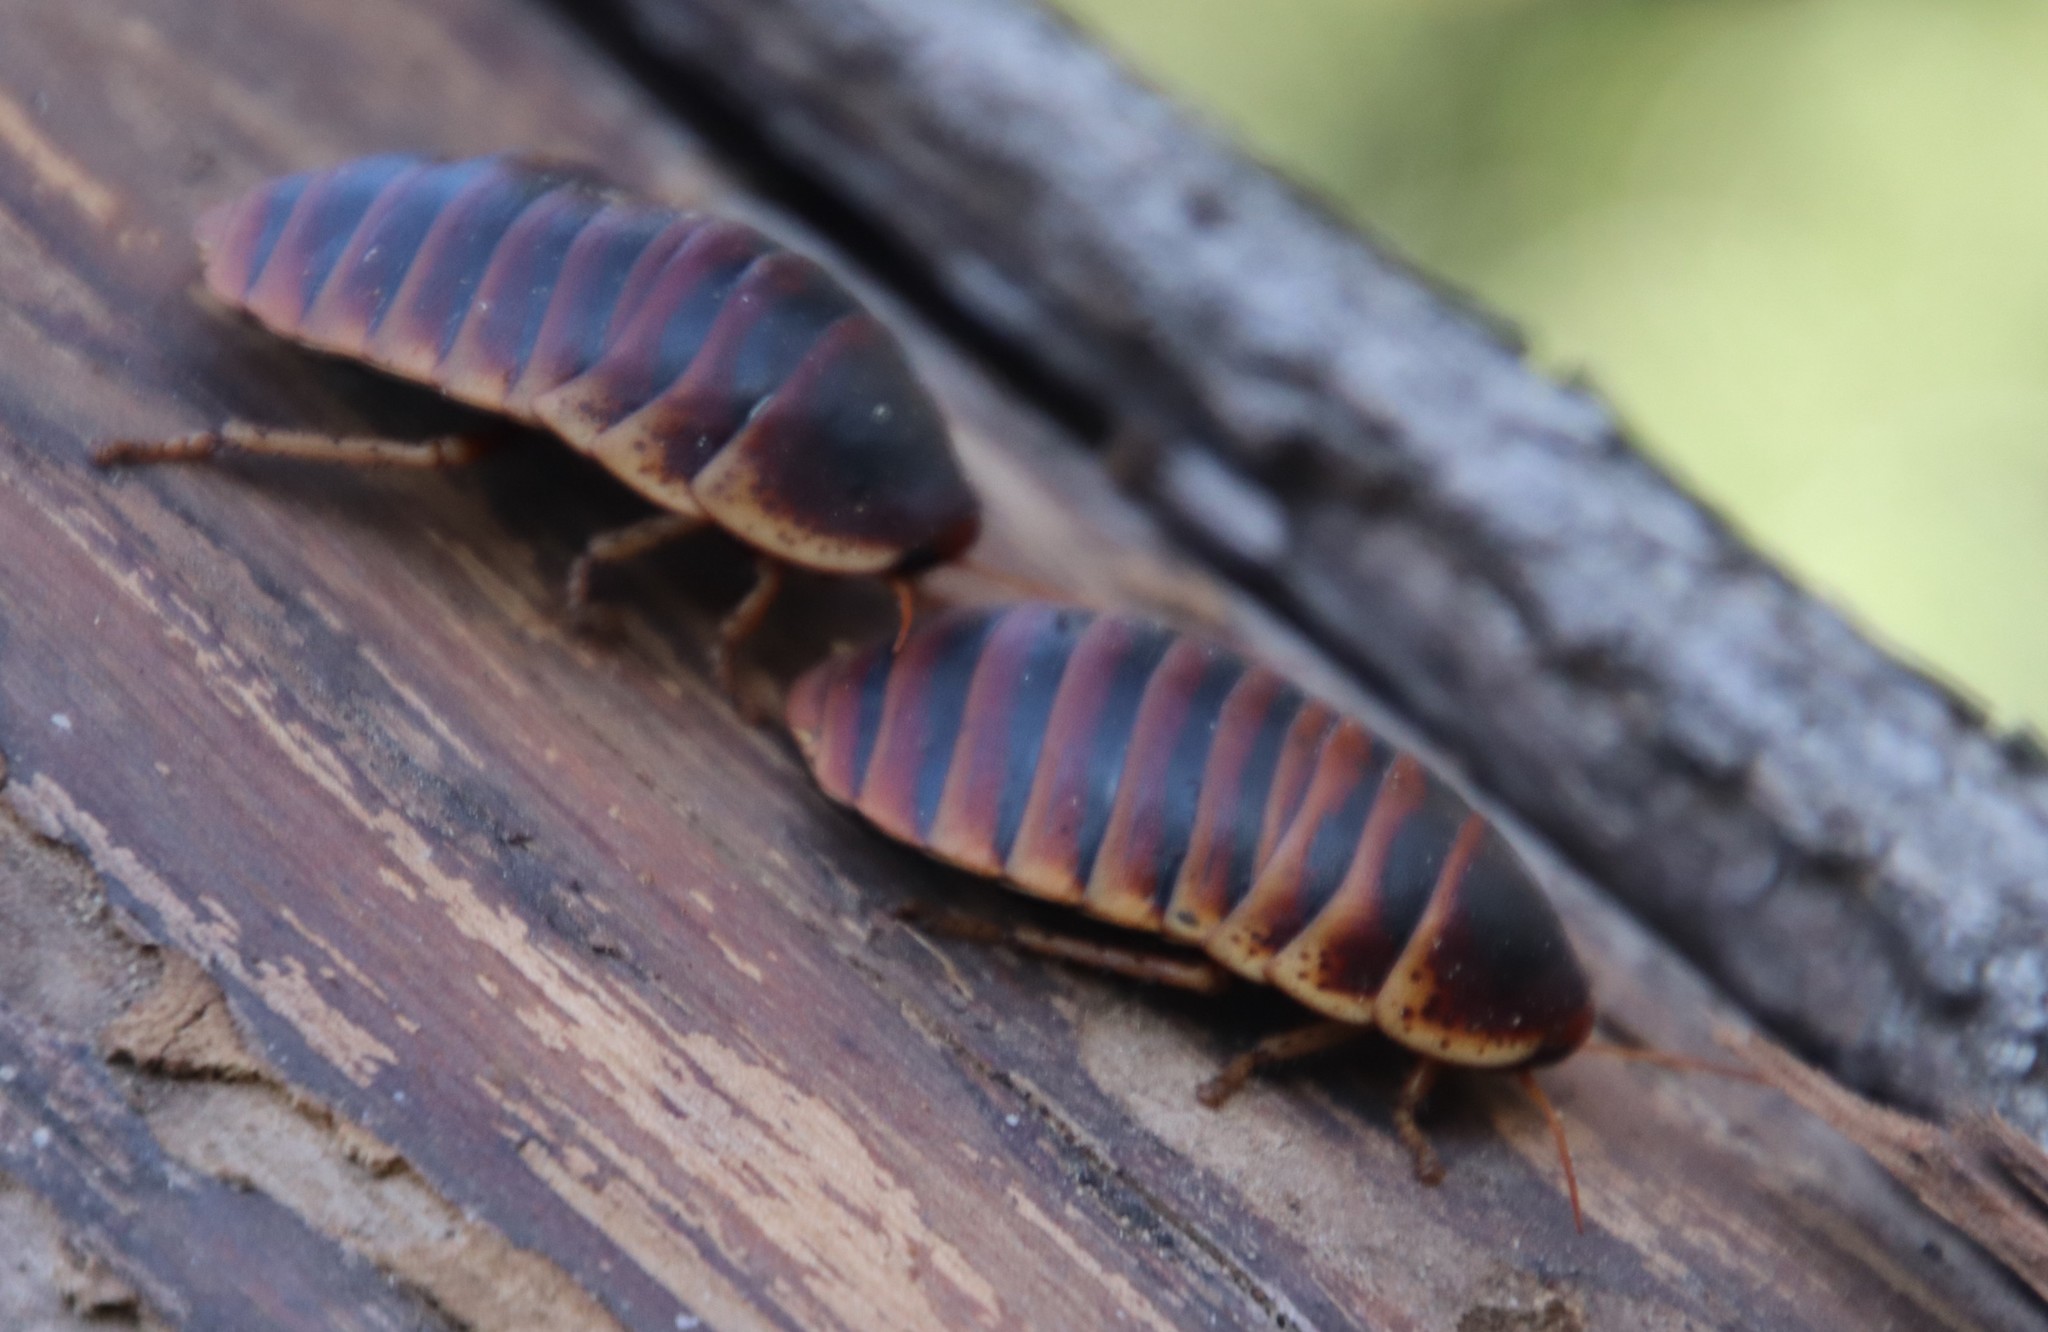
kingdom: Animalia
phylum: Arthropoda
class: Insecta
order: Blattodea
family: Blaberidae
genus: Aptera
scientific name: Aptera fusca
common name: Cape mountain cockroach
